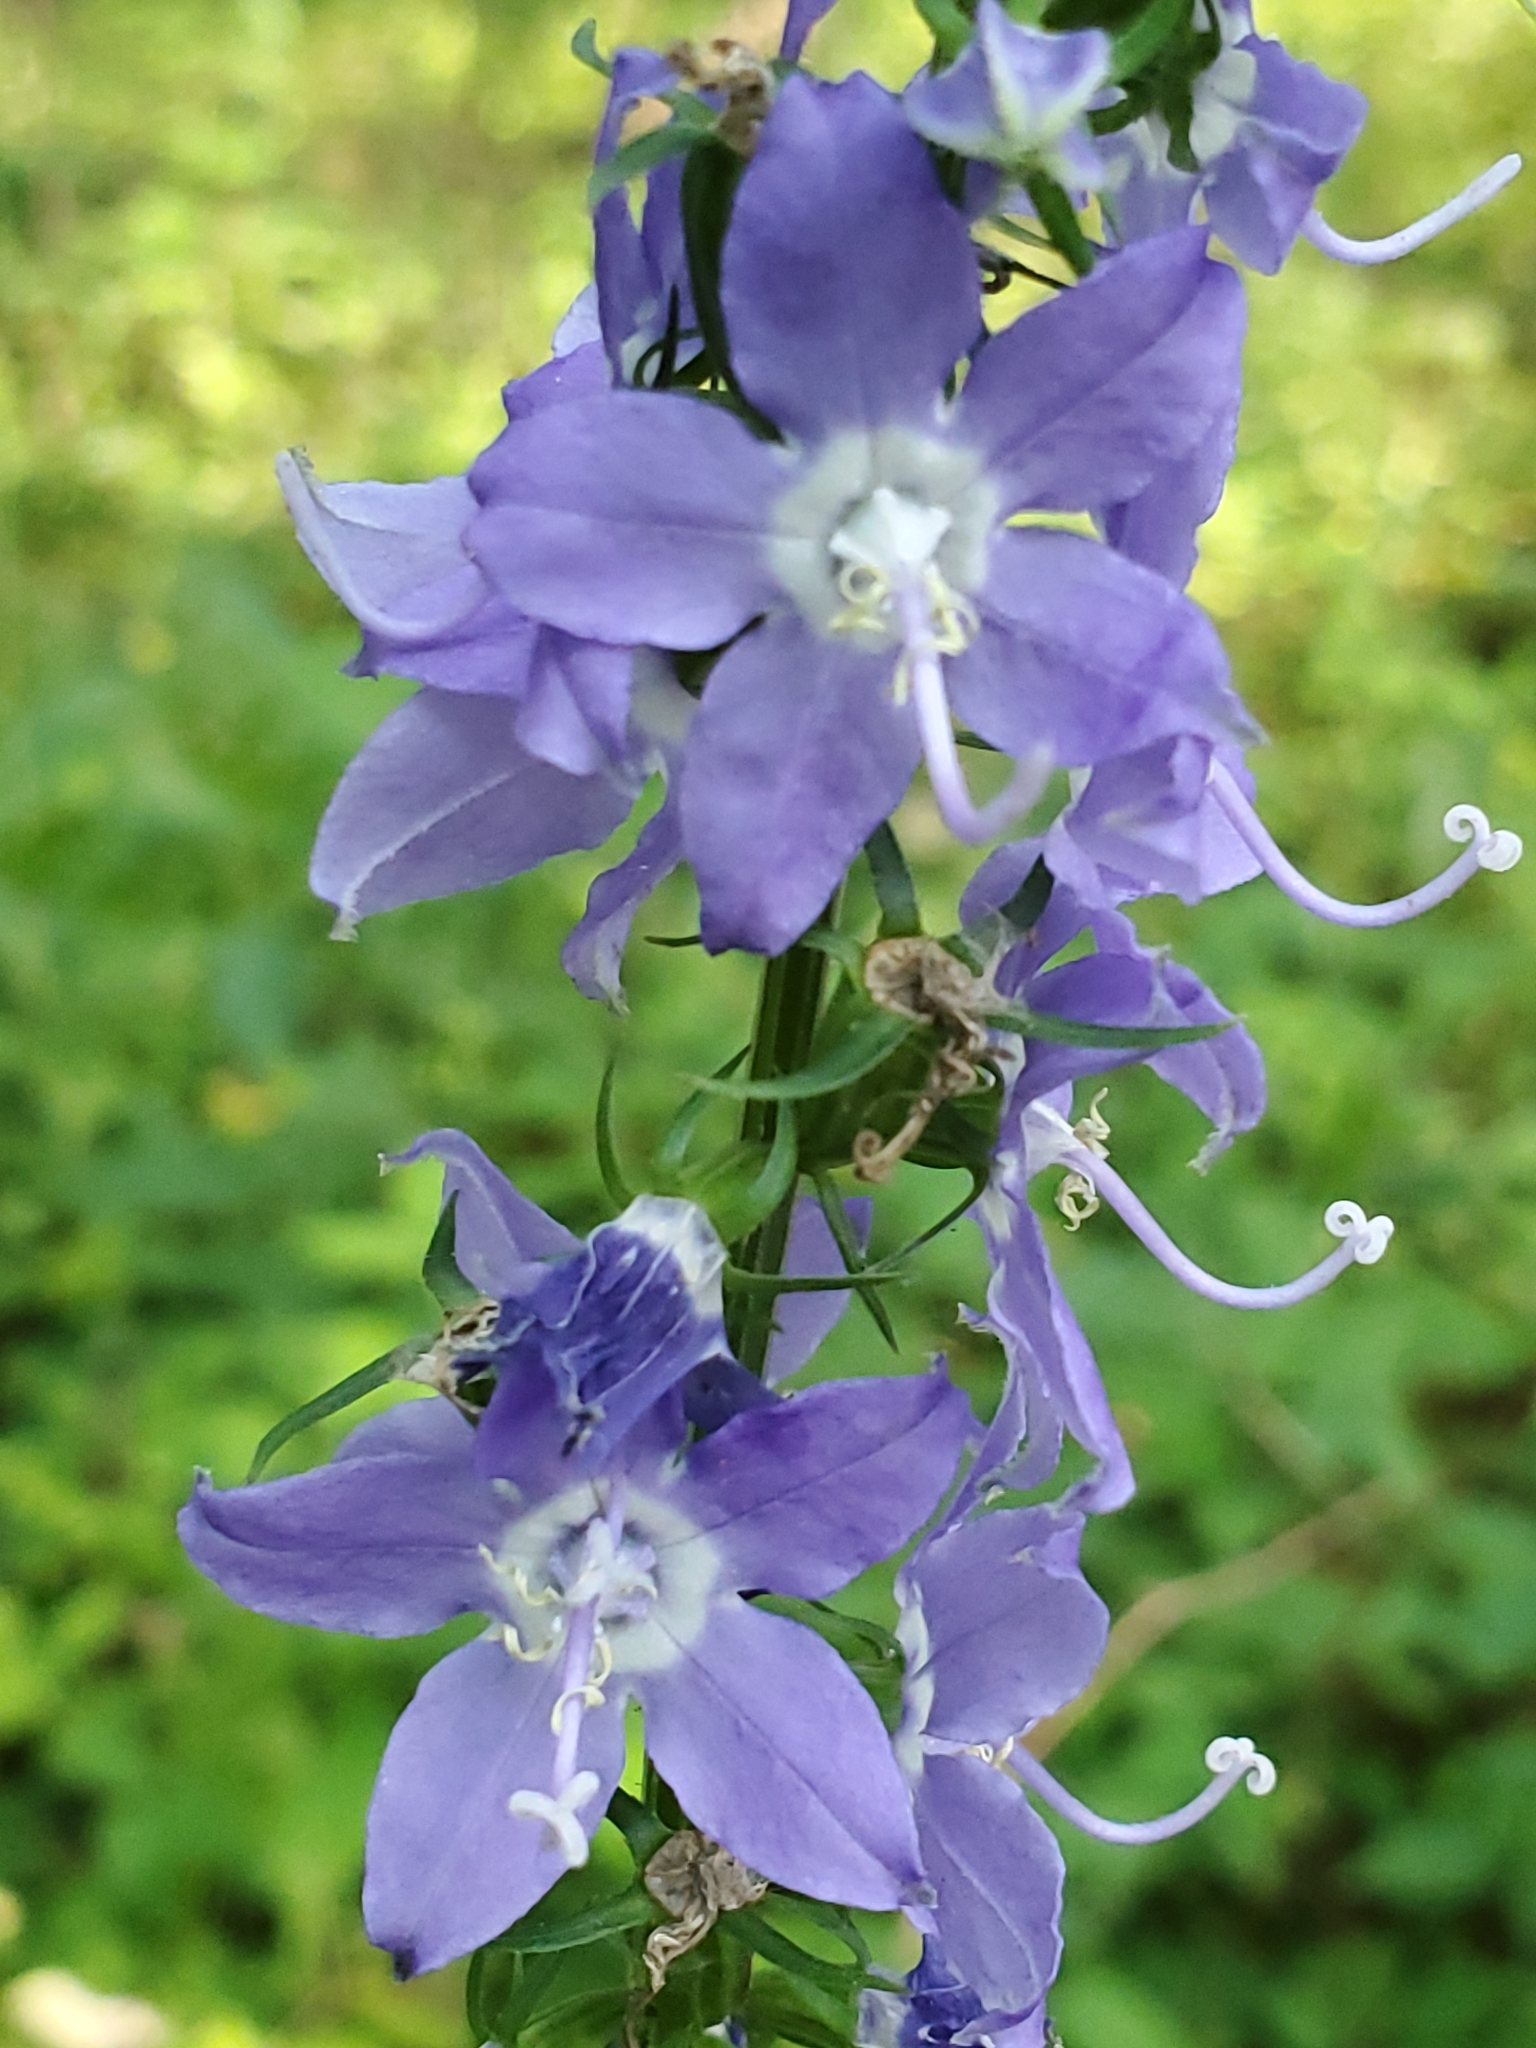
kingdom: Plantae
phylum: Tracheophyta
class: Magnoliopsida
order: Asterales
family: Campanulaceae
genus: Campanulastrum
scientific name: Campanulastrum americanum
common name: American bellflower
